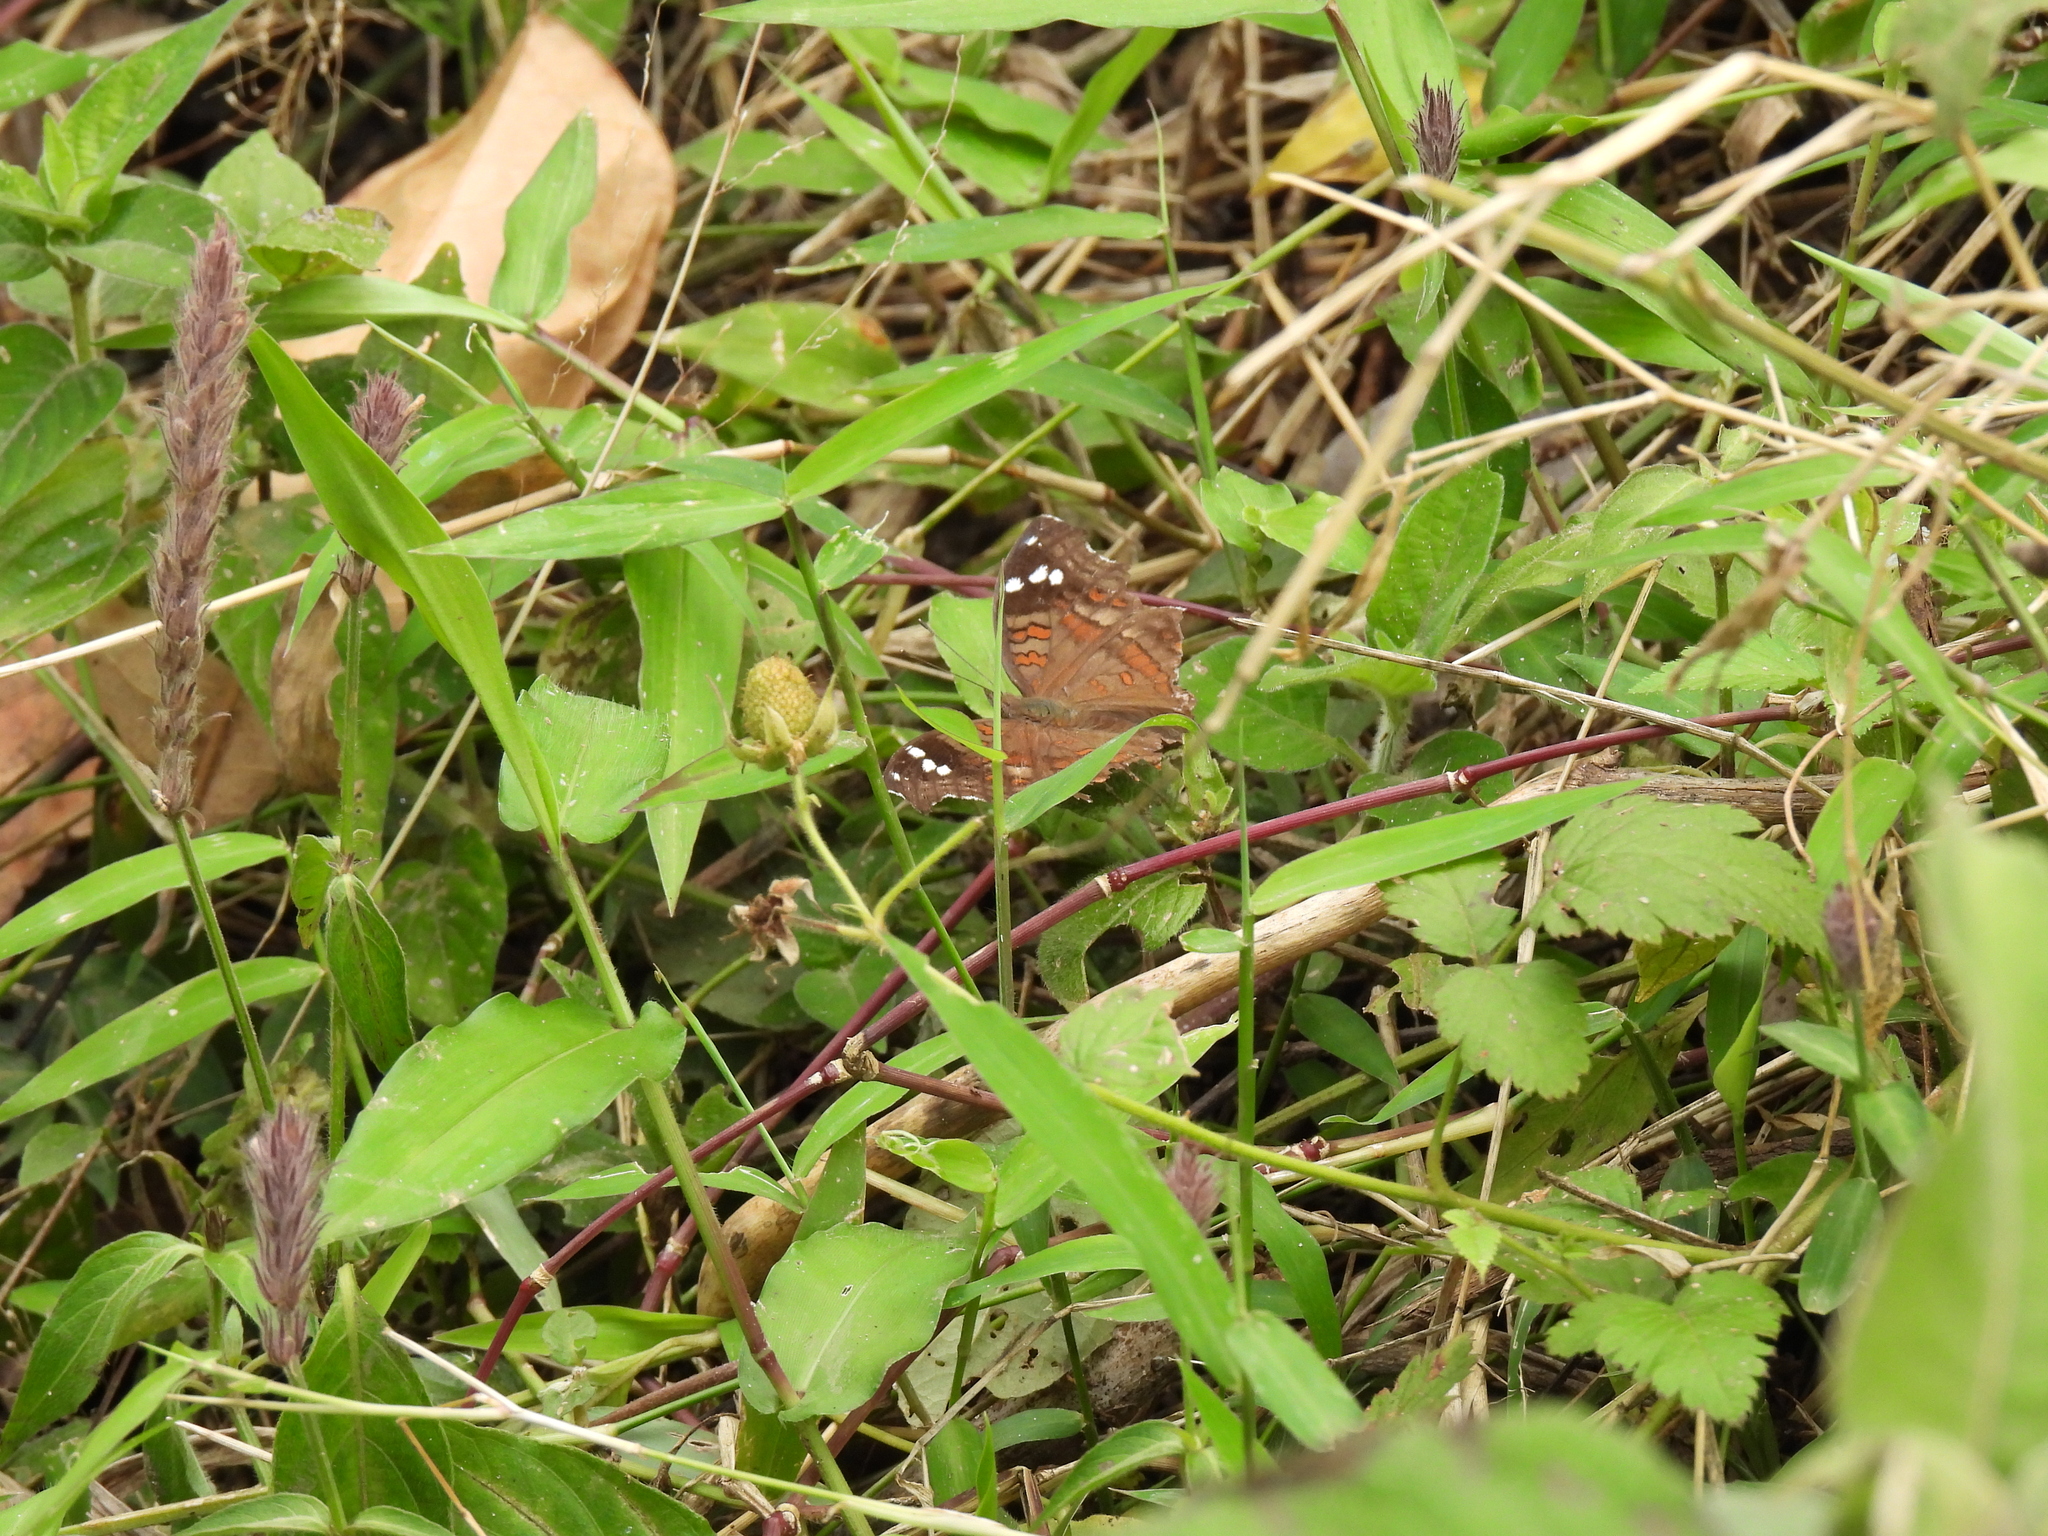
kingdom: Animalia
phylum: Arthropoda
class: Insecta
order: Lepidoptera
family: Nymphalidae
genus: Junonia
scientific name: Junonia natalica
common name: Brown pansy
